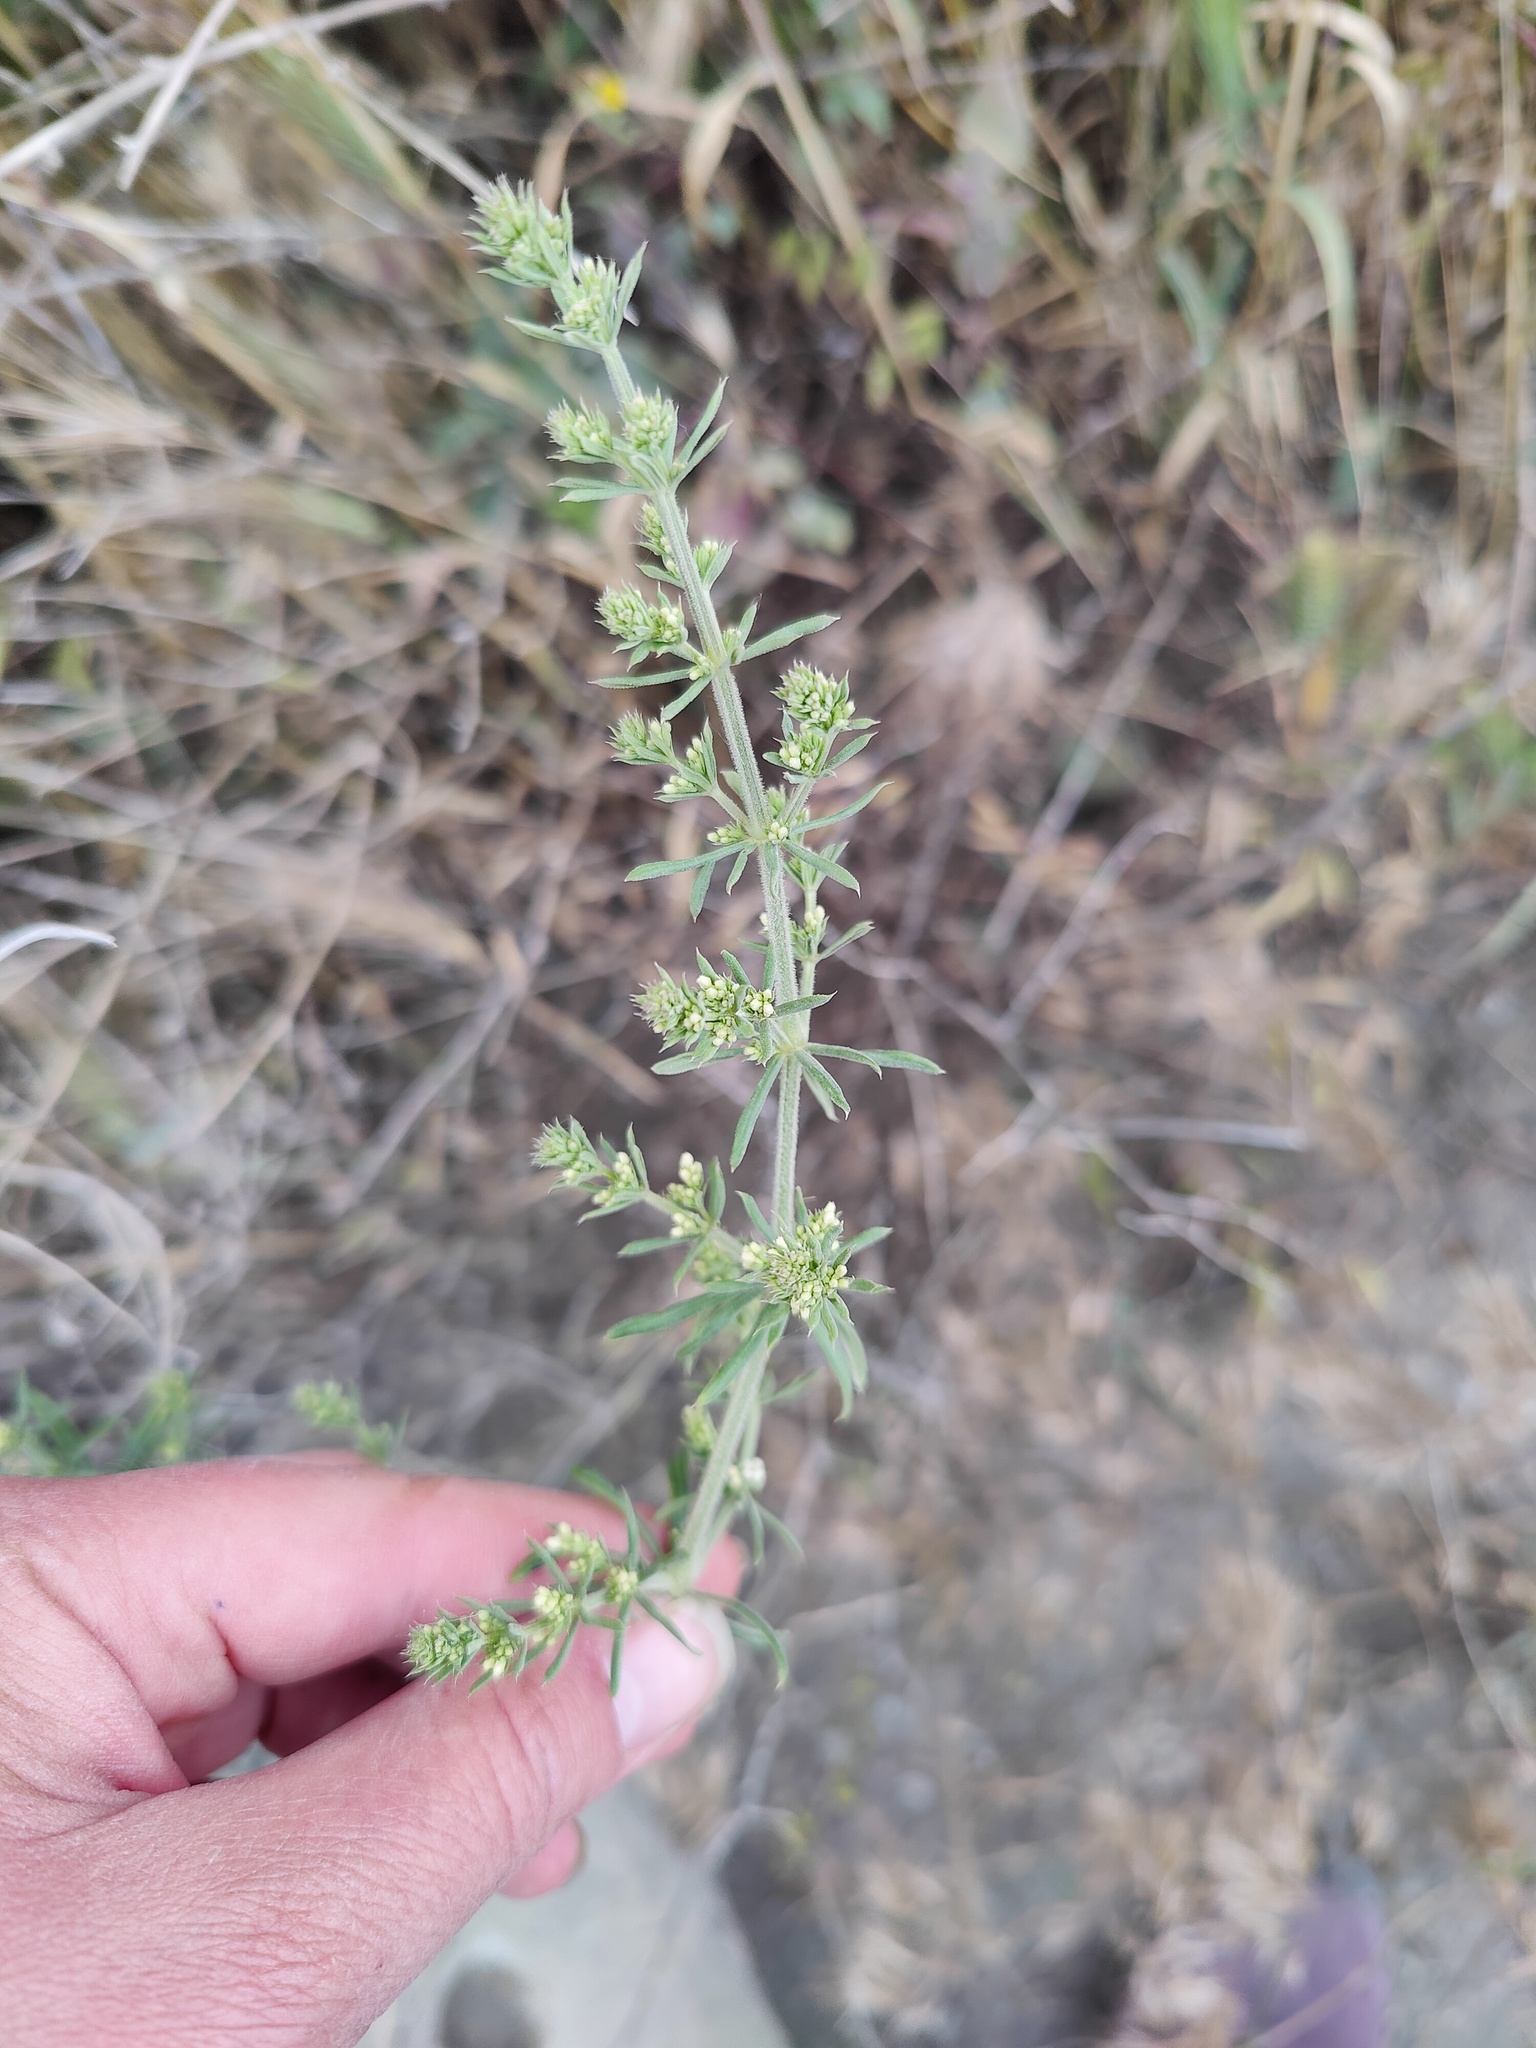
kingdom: Plantae
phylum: Tracheophyta
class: Magnoliopsida
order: Gentianales
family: Rubiaceae
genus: Galium
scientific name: Galium humifusum
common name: Spreading bedstraw
